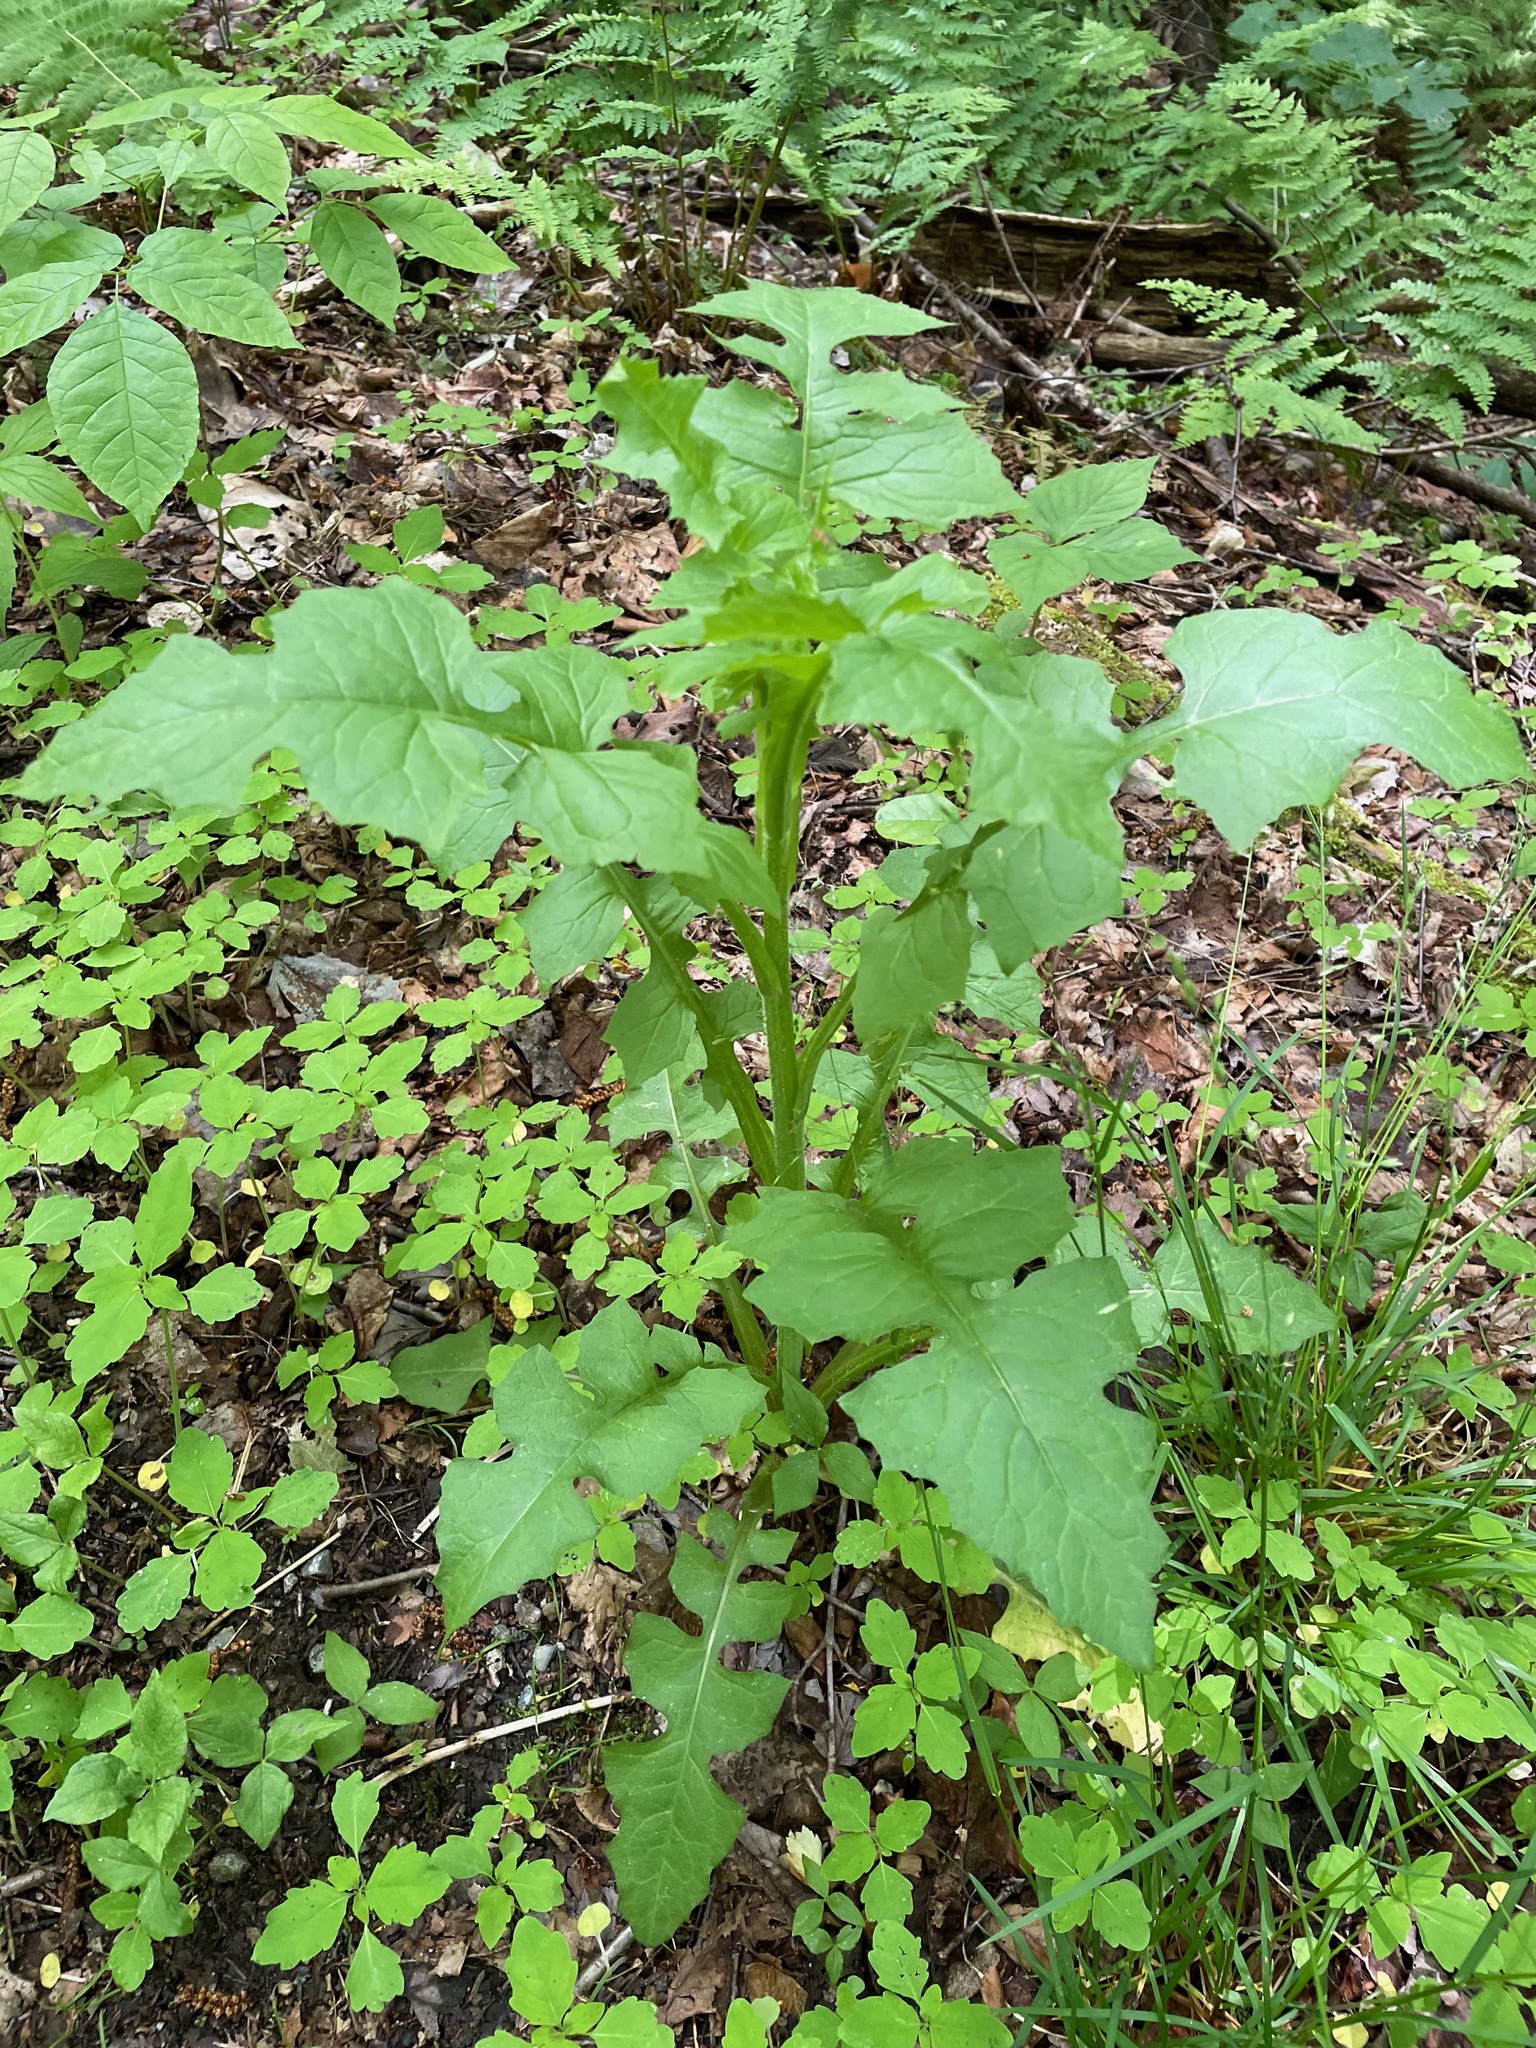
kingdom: Plantae
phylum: Tracheophyta
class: Magnoliopsida
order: Asterales
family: Asteraceae
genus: Lactuca
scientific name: Lactuca biennis
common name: Blue wood lettuce
